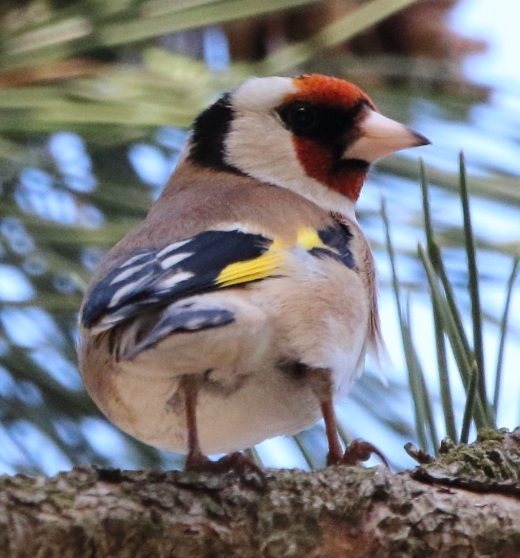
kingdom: Animalia
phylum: Chordata
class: Aves
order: Passeriformes
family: Fringillidae
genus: Carduelis
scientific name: Carduelis carduelis
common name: European goldfinch
